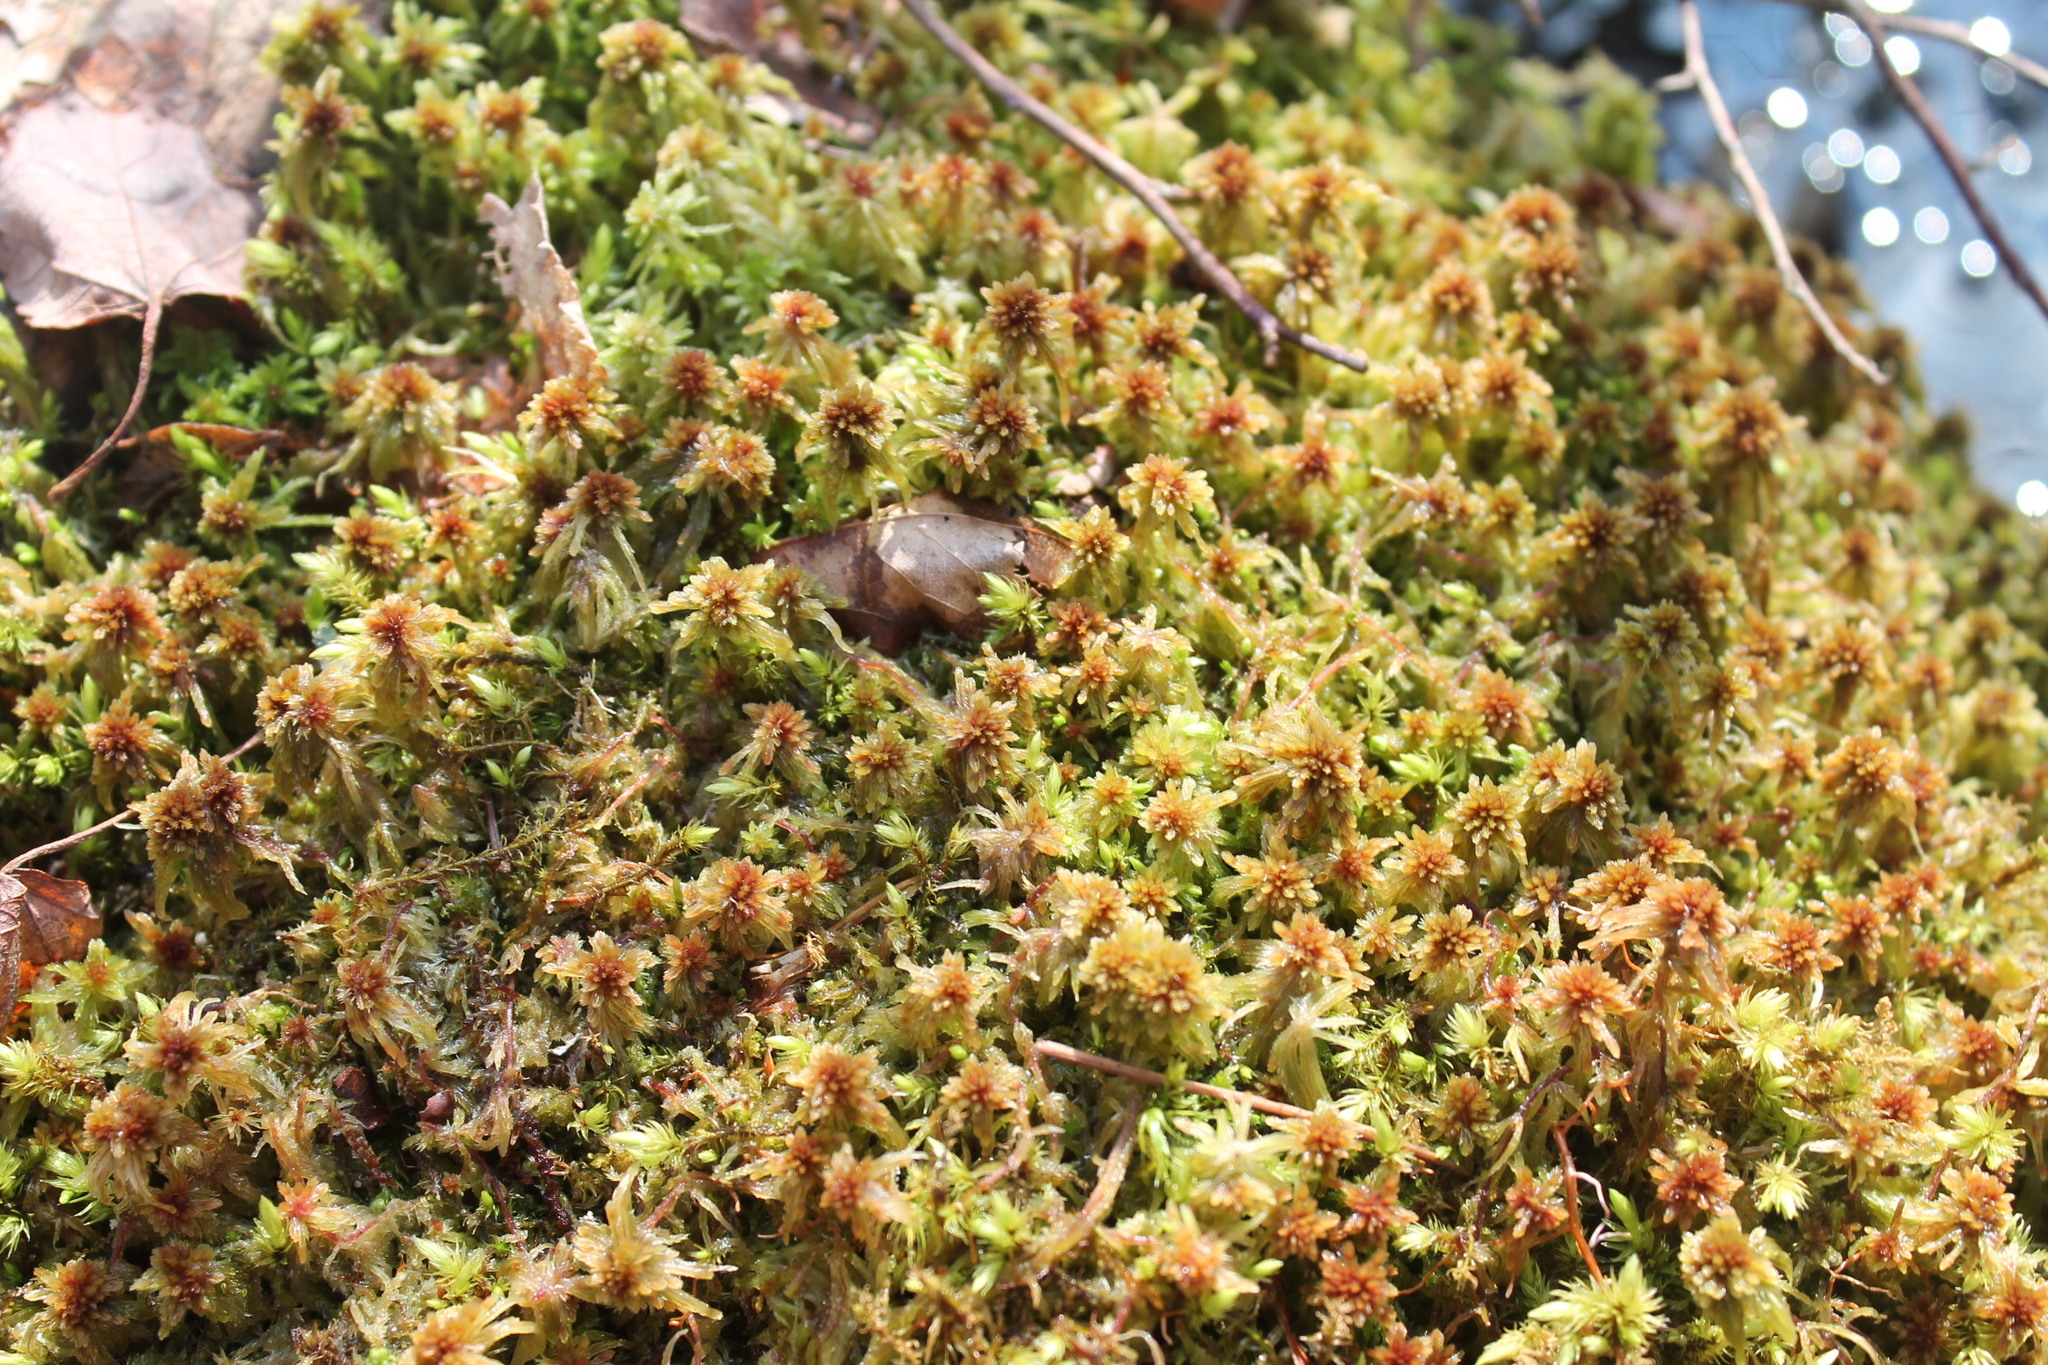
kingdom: Plantae
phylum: Bryophyta
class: Sphagnopsida
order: Sphagnales
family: Sphagnaceae
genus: Sphagnum
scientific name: Sphagnum palustre
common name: Blunt-leaved bog-moss
